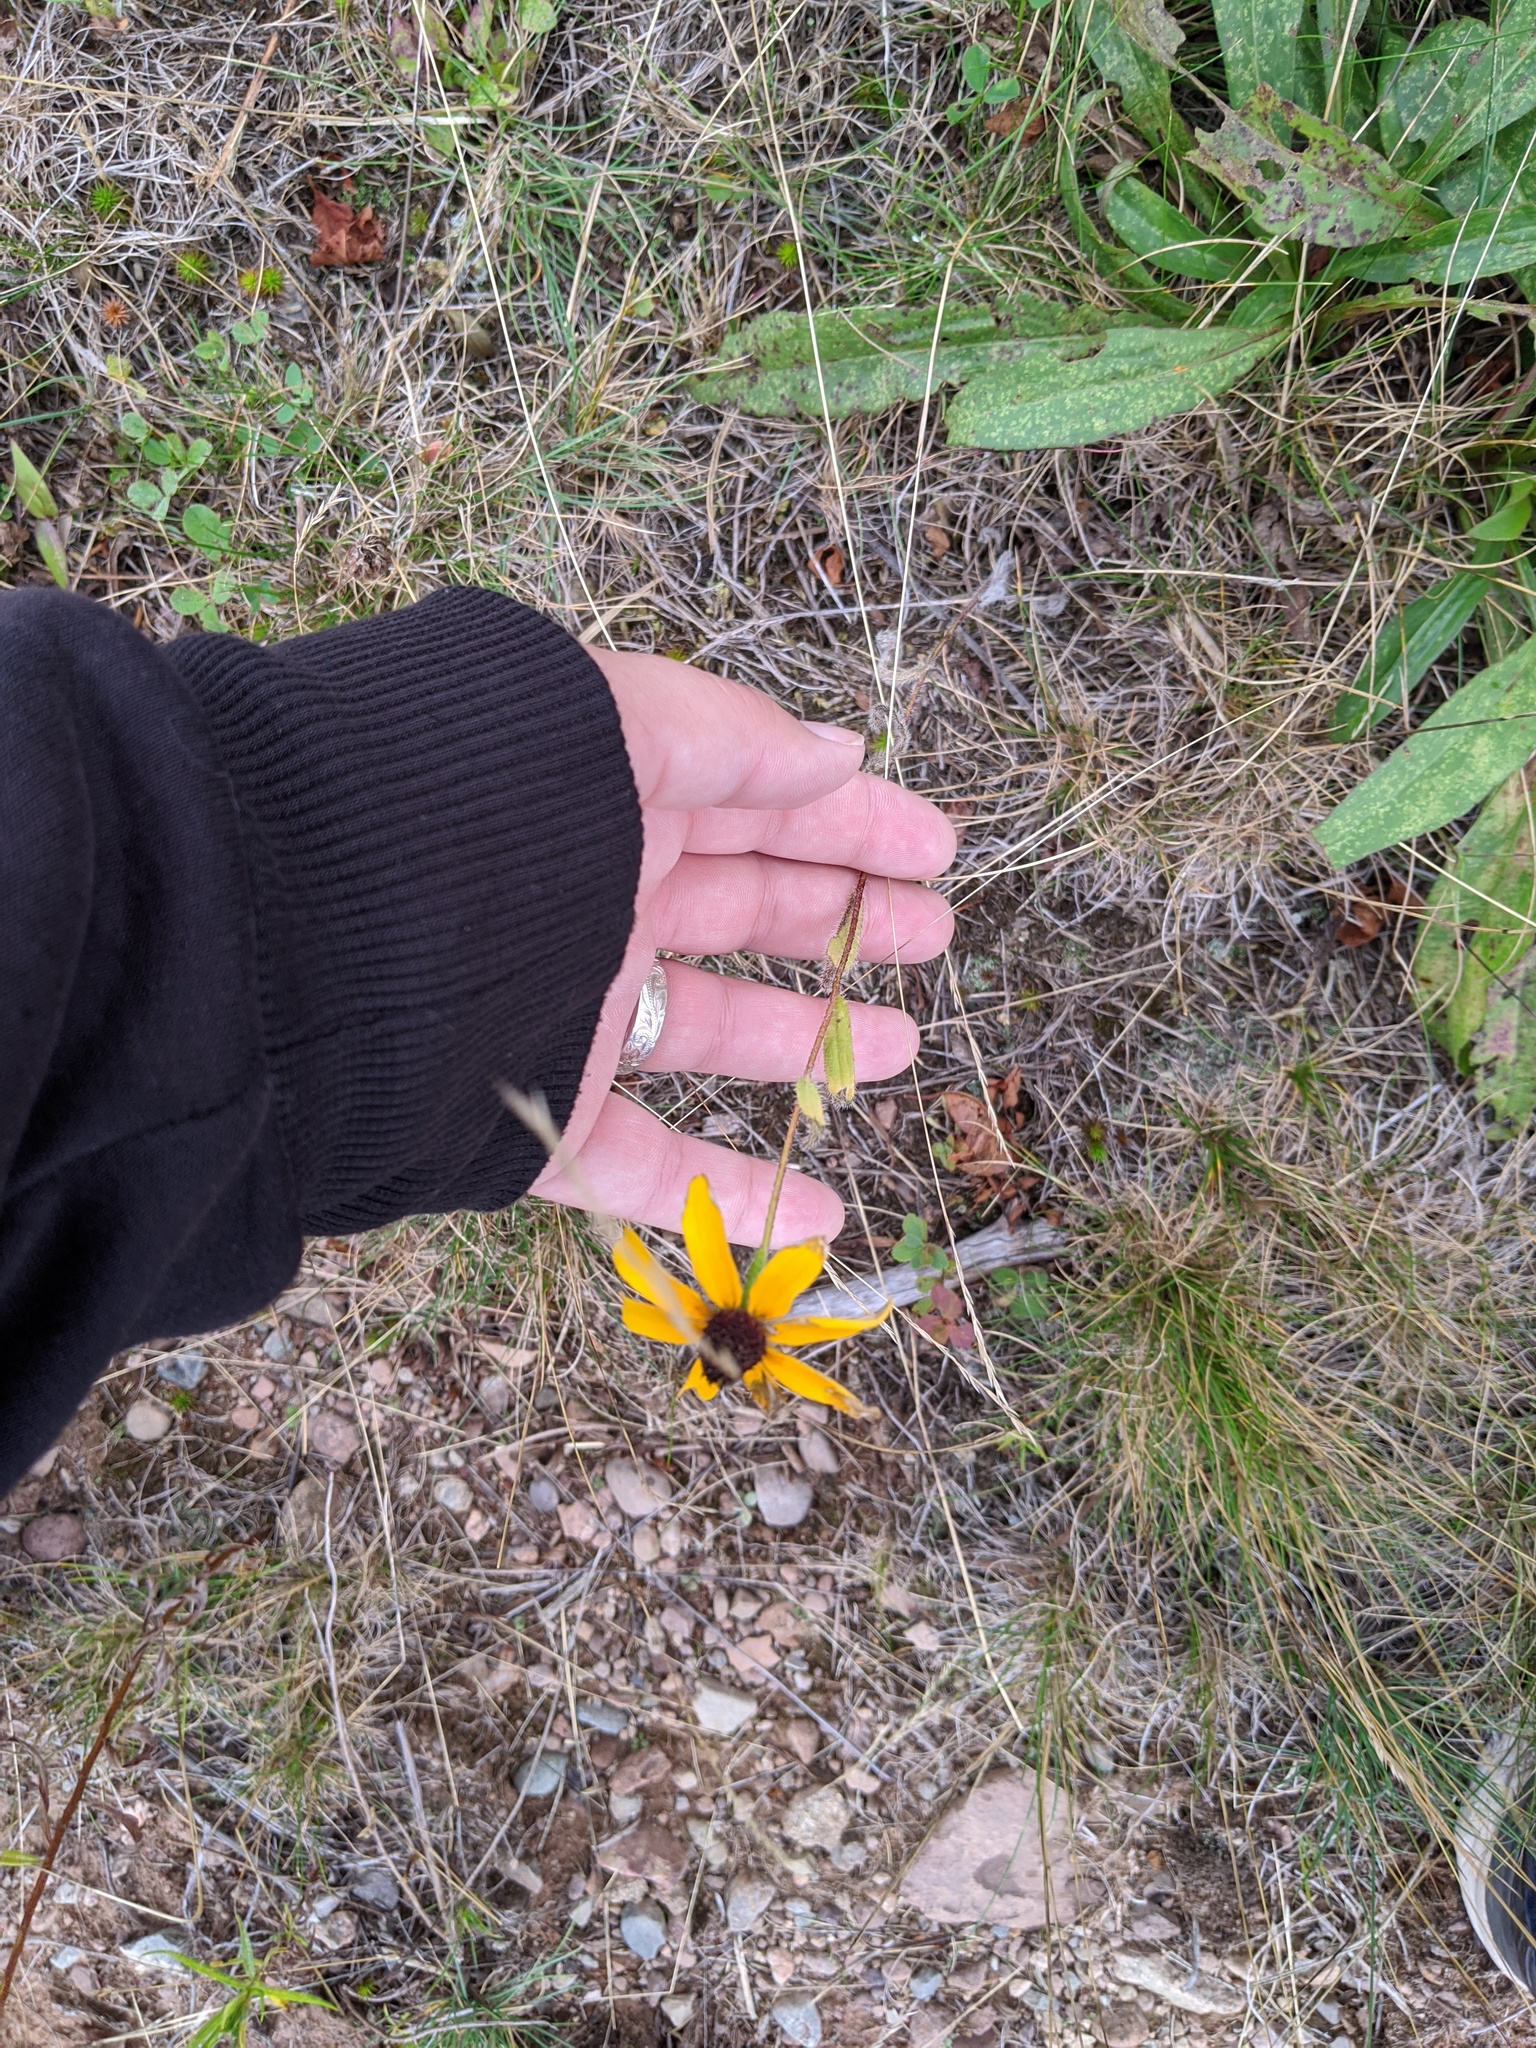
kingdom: Plantae
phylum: Tracheophyta
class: Magnoliopsida
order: Asterales
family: Asteraceae
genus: Rudbeckia
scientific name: Rudbeckia hirta
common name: Black-eyed-susan
